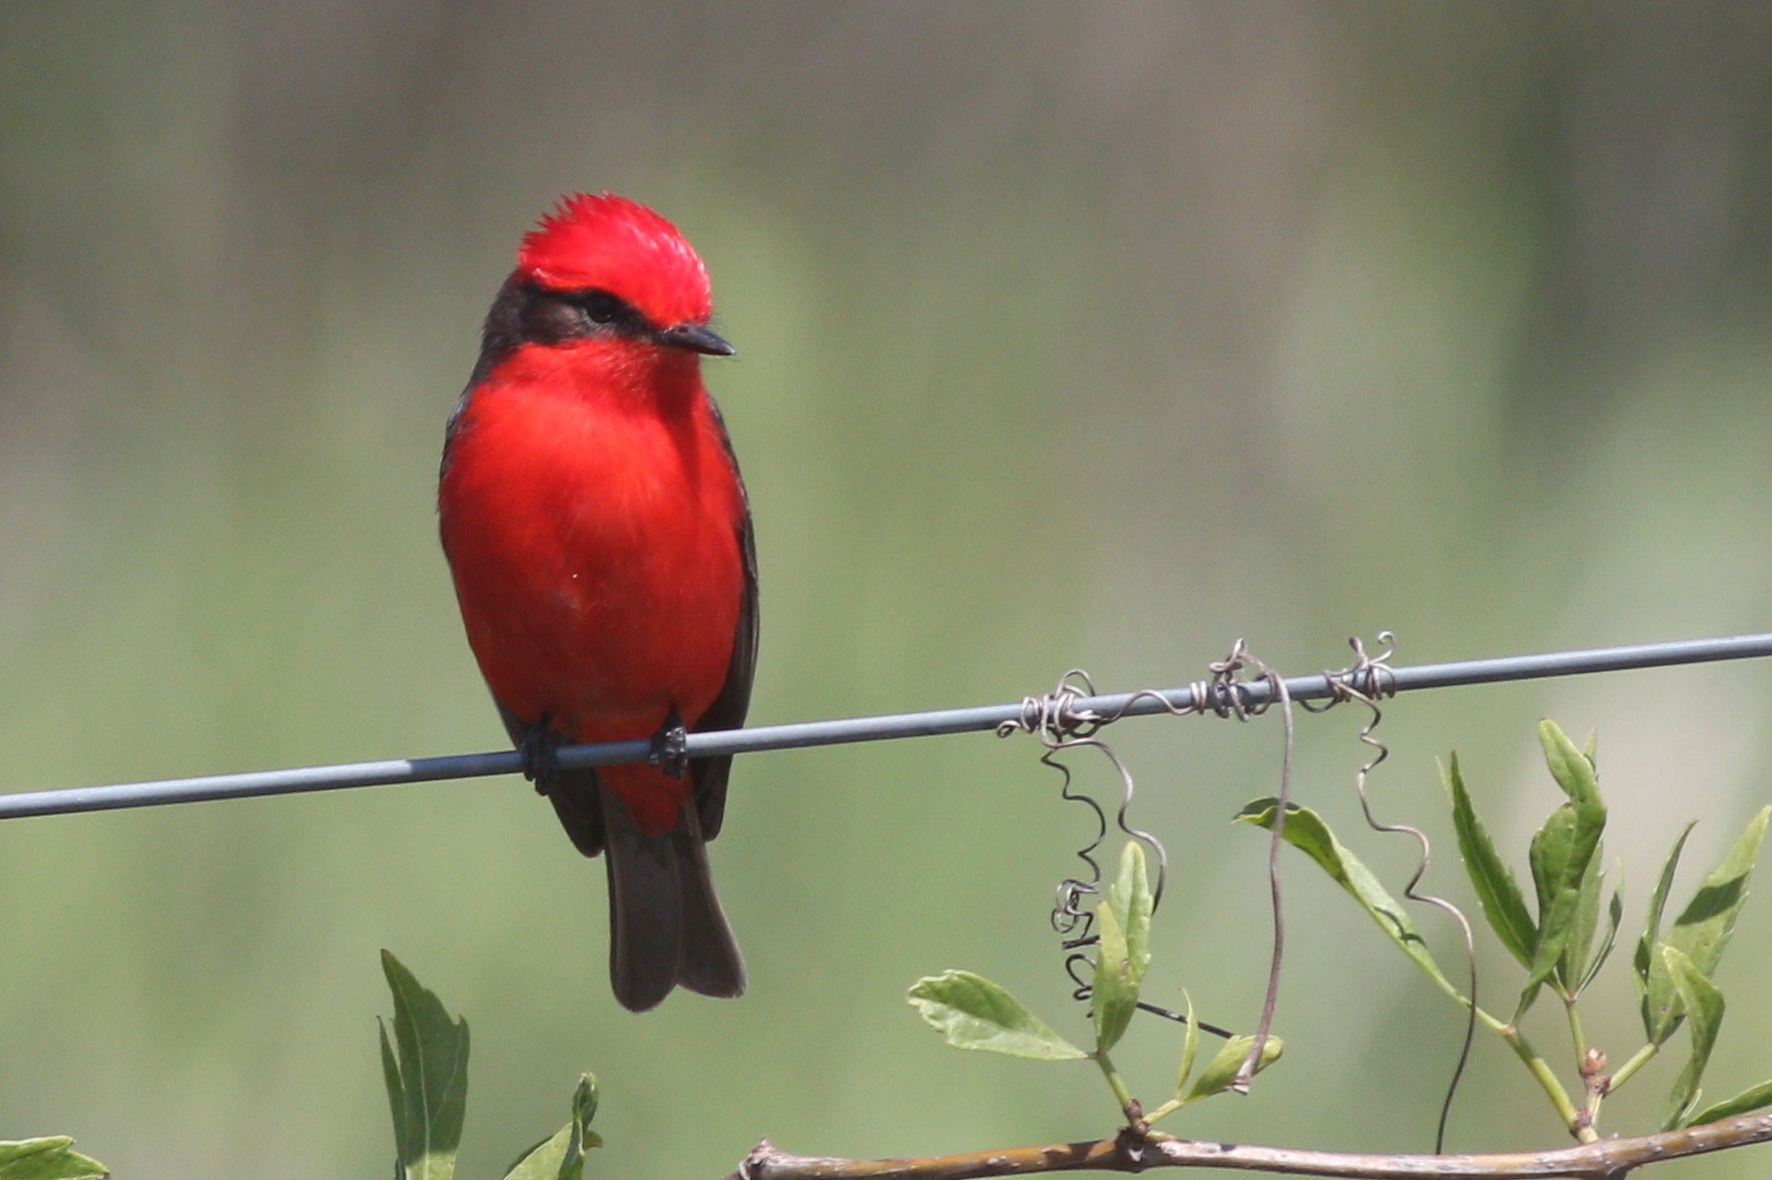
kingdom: Animalia
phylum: Chordata
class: Aves
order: Passeriformes
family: Tyrannidae
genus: Pyrocephalus
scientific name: Pyrocephalus rubinus
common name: Vermilion flycatcher
